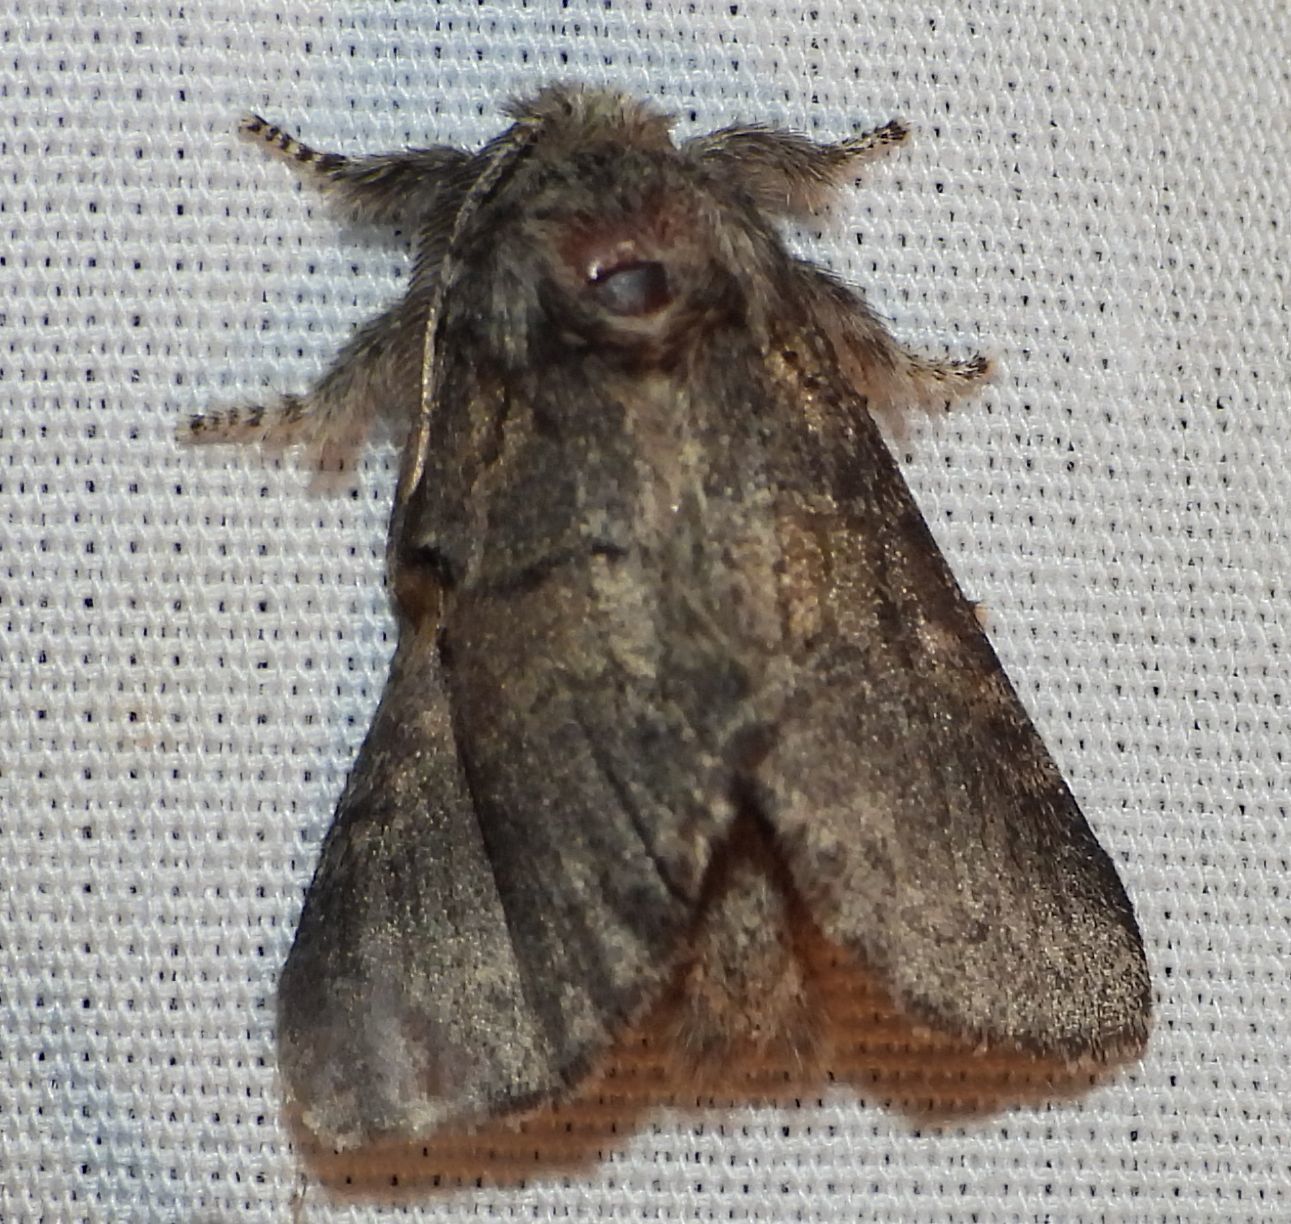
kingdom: Animalia
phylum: Arthropoda
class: Insecta
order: Lepidoptera
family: Notodontidae
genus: Gluphisia
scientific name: Gluphisia septentrionis
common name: Common gluphisia
